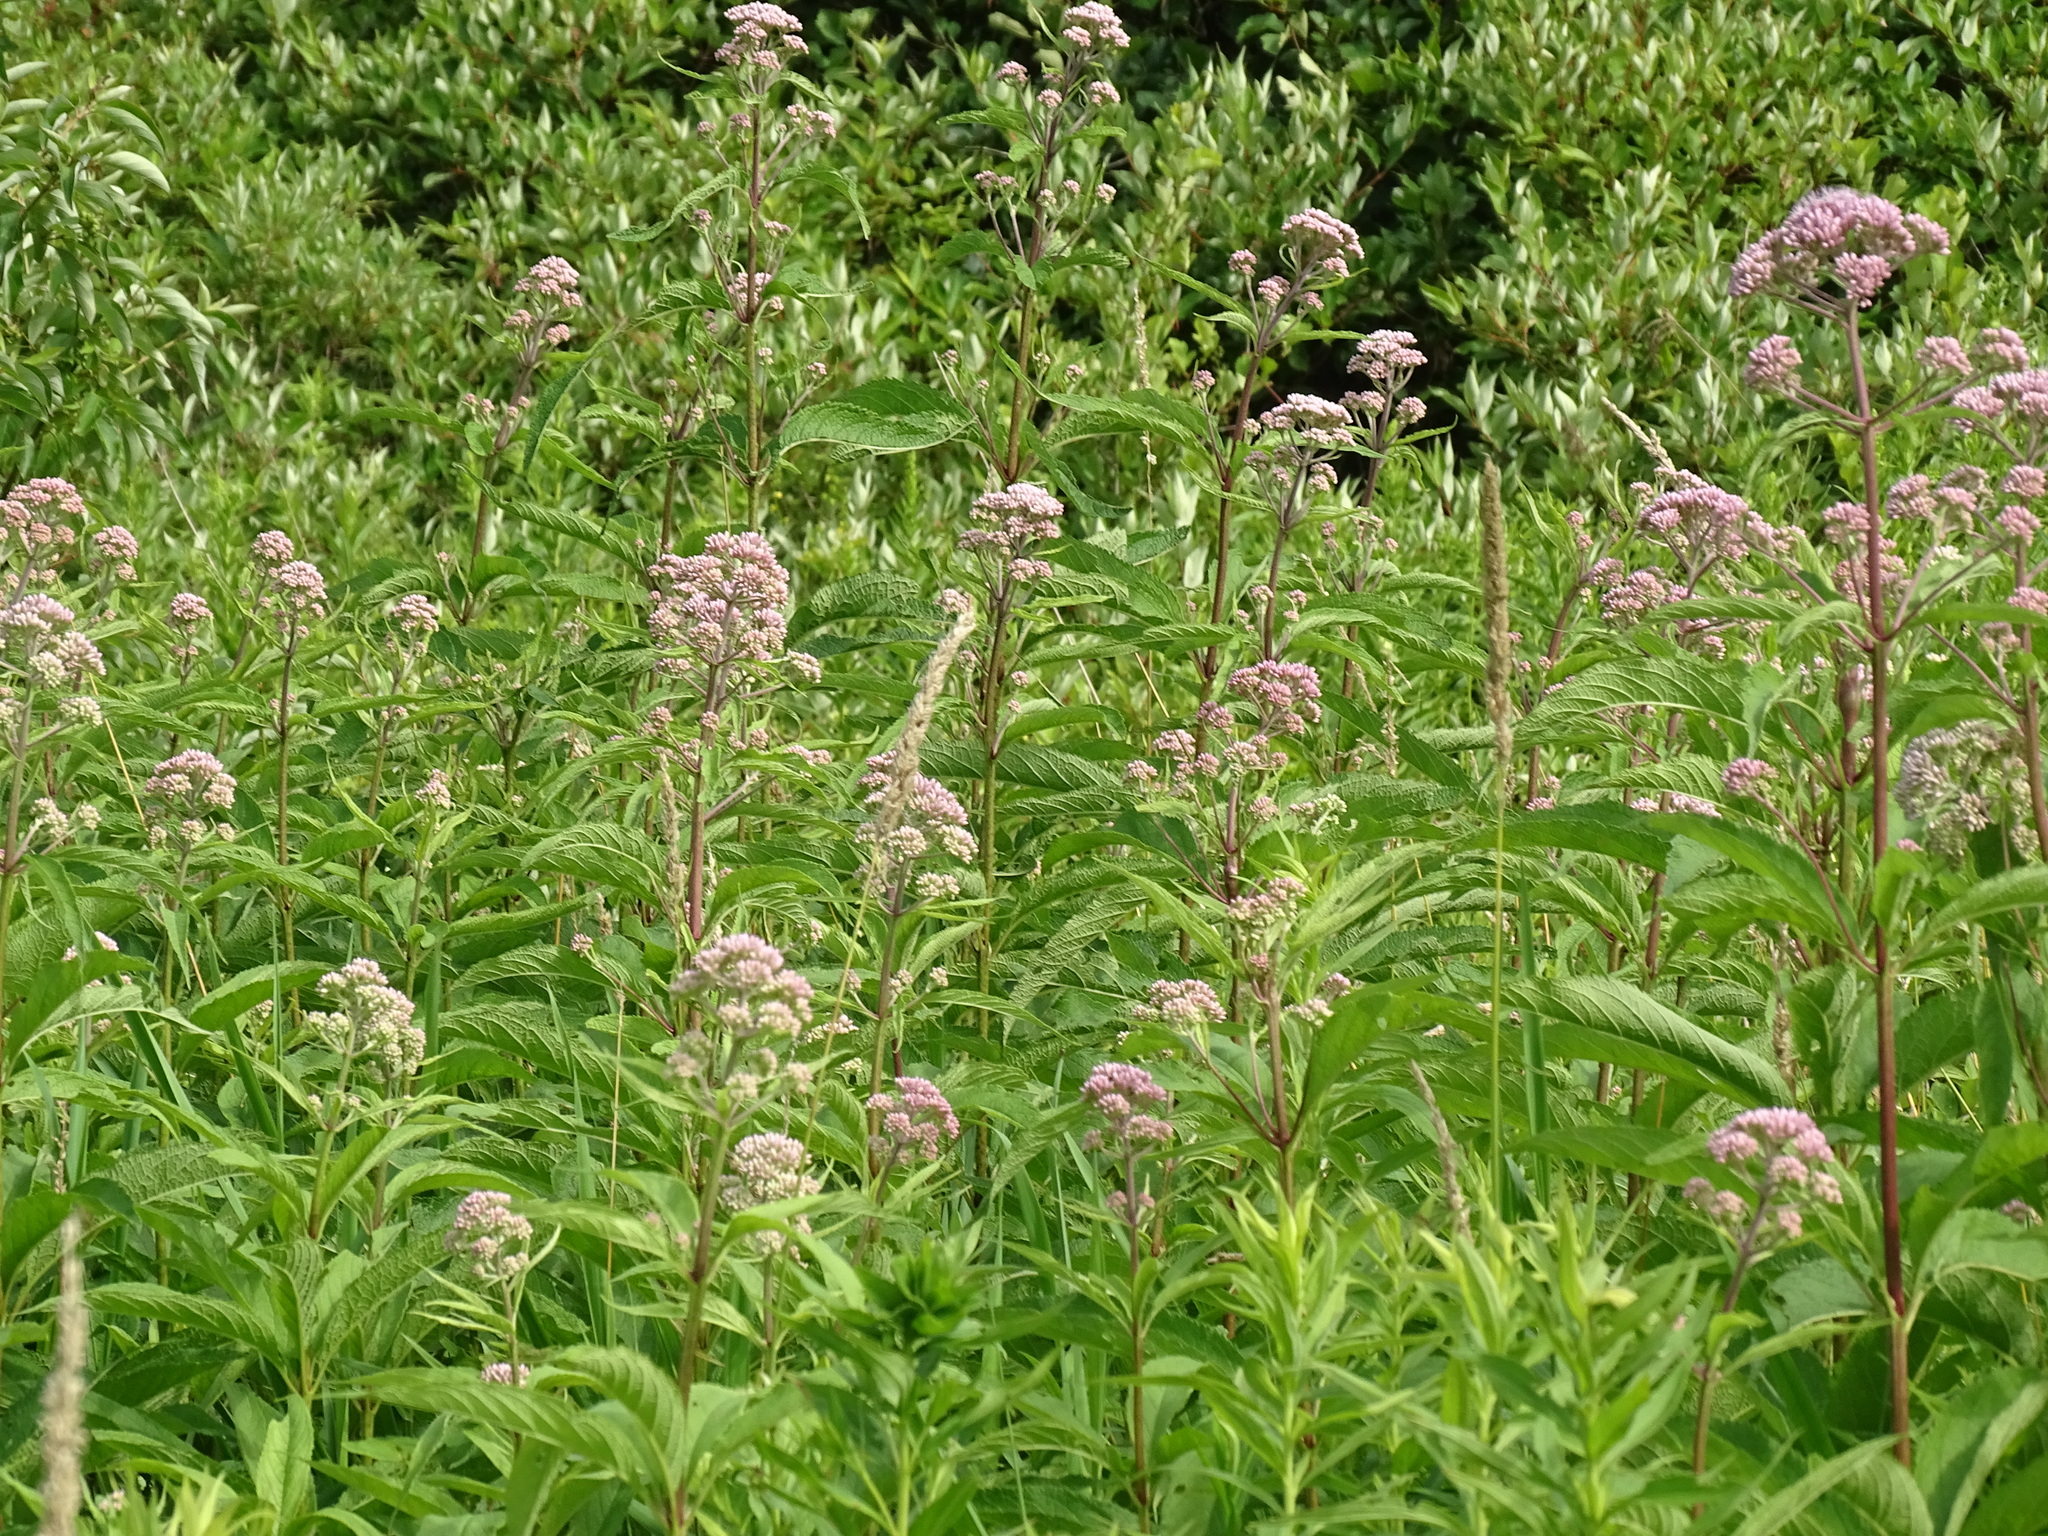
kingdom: Plantae
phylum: Tracheophyta
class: Magnoliopsida
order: Asterales
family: Asteraceae
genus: Eutrochium
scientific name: Eutrochium maculatum
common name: Spotted joe pye weed
